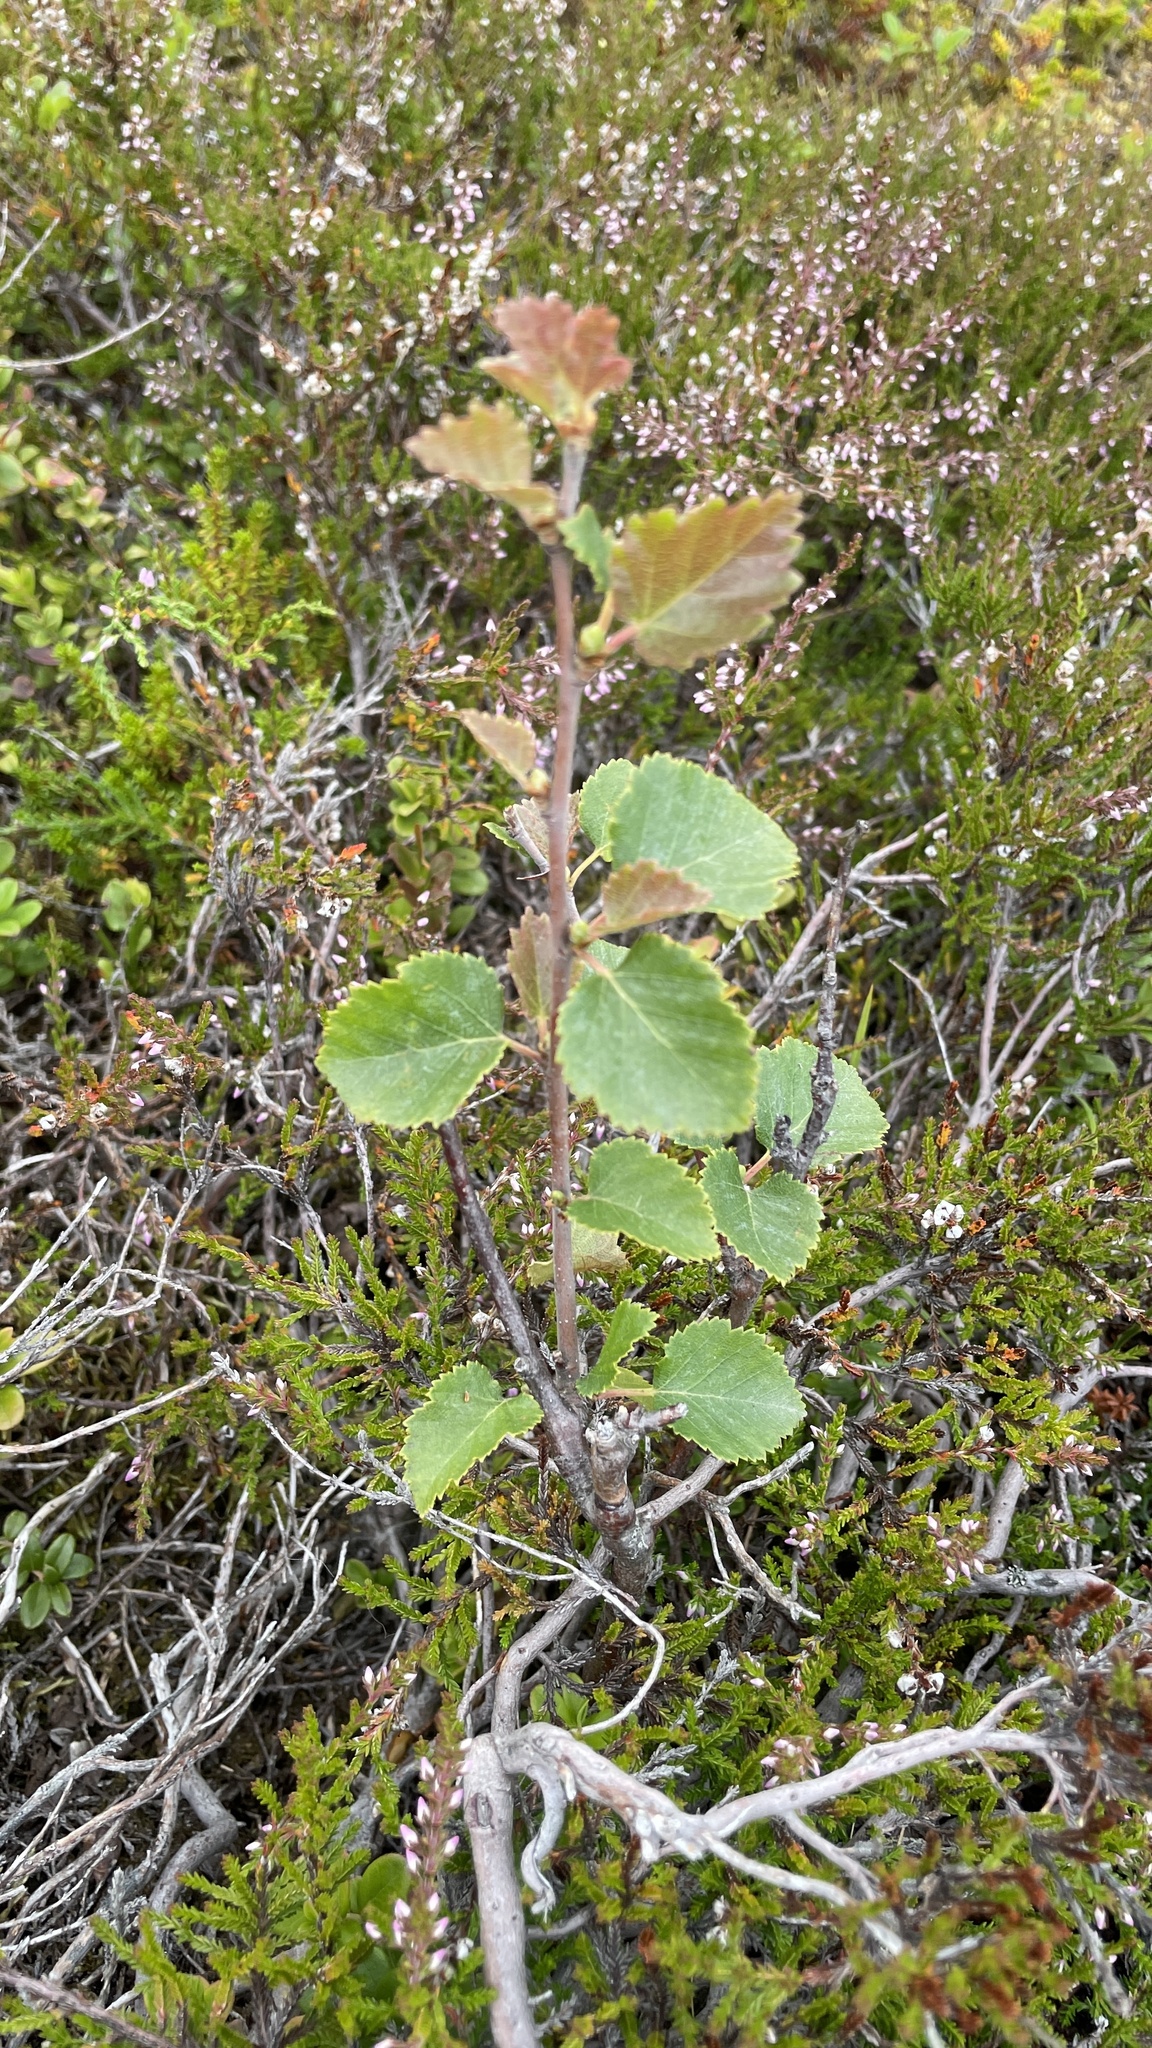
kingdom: Plantae
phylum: Tracheophyta
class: Magnoliopsida
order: Fagales
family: Betulaceae
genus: Betula
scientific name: Betula pubescens
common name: Downy birch
